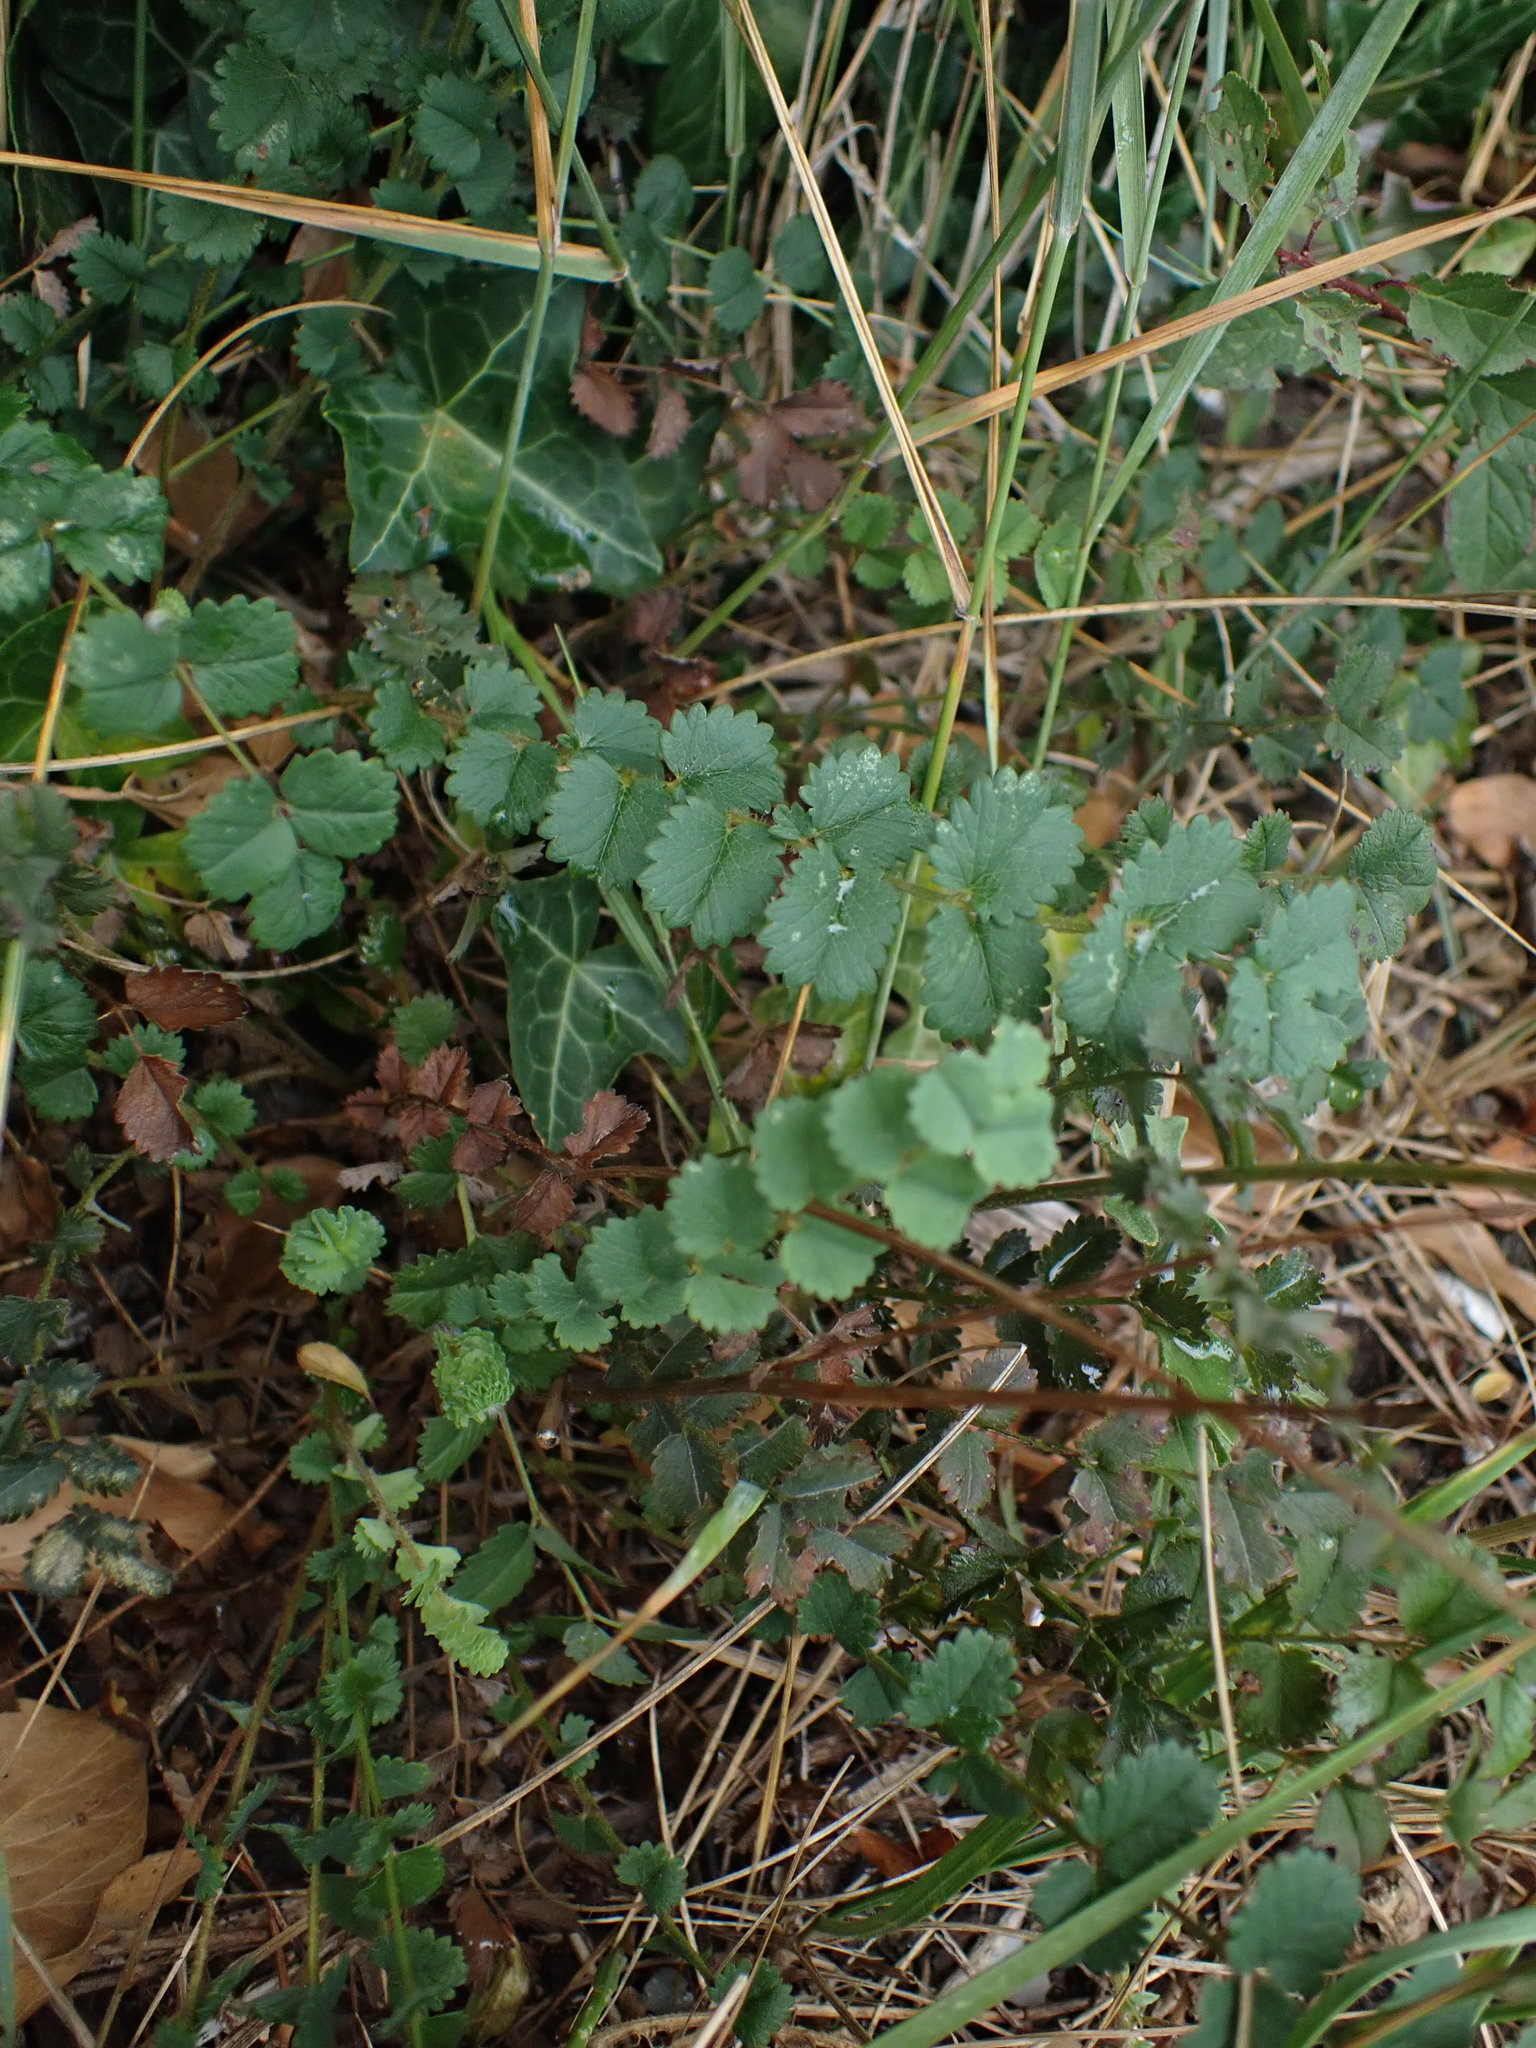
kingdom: Plantae
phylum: Tracheophyta
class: Magnoliopsida
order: Rosales
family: Rosaceae
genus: Poterium
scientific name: Poterium sanguisorba
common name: Salad burnet
